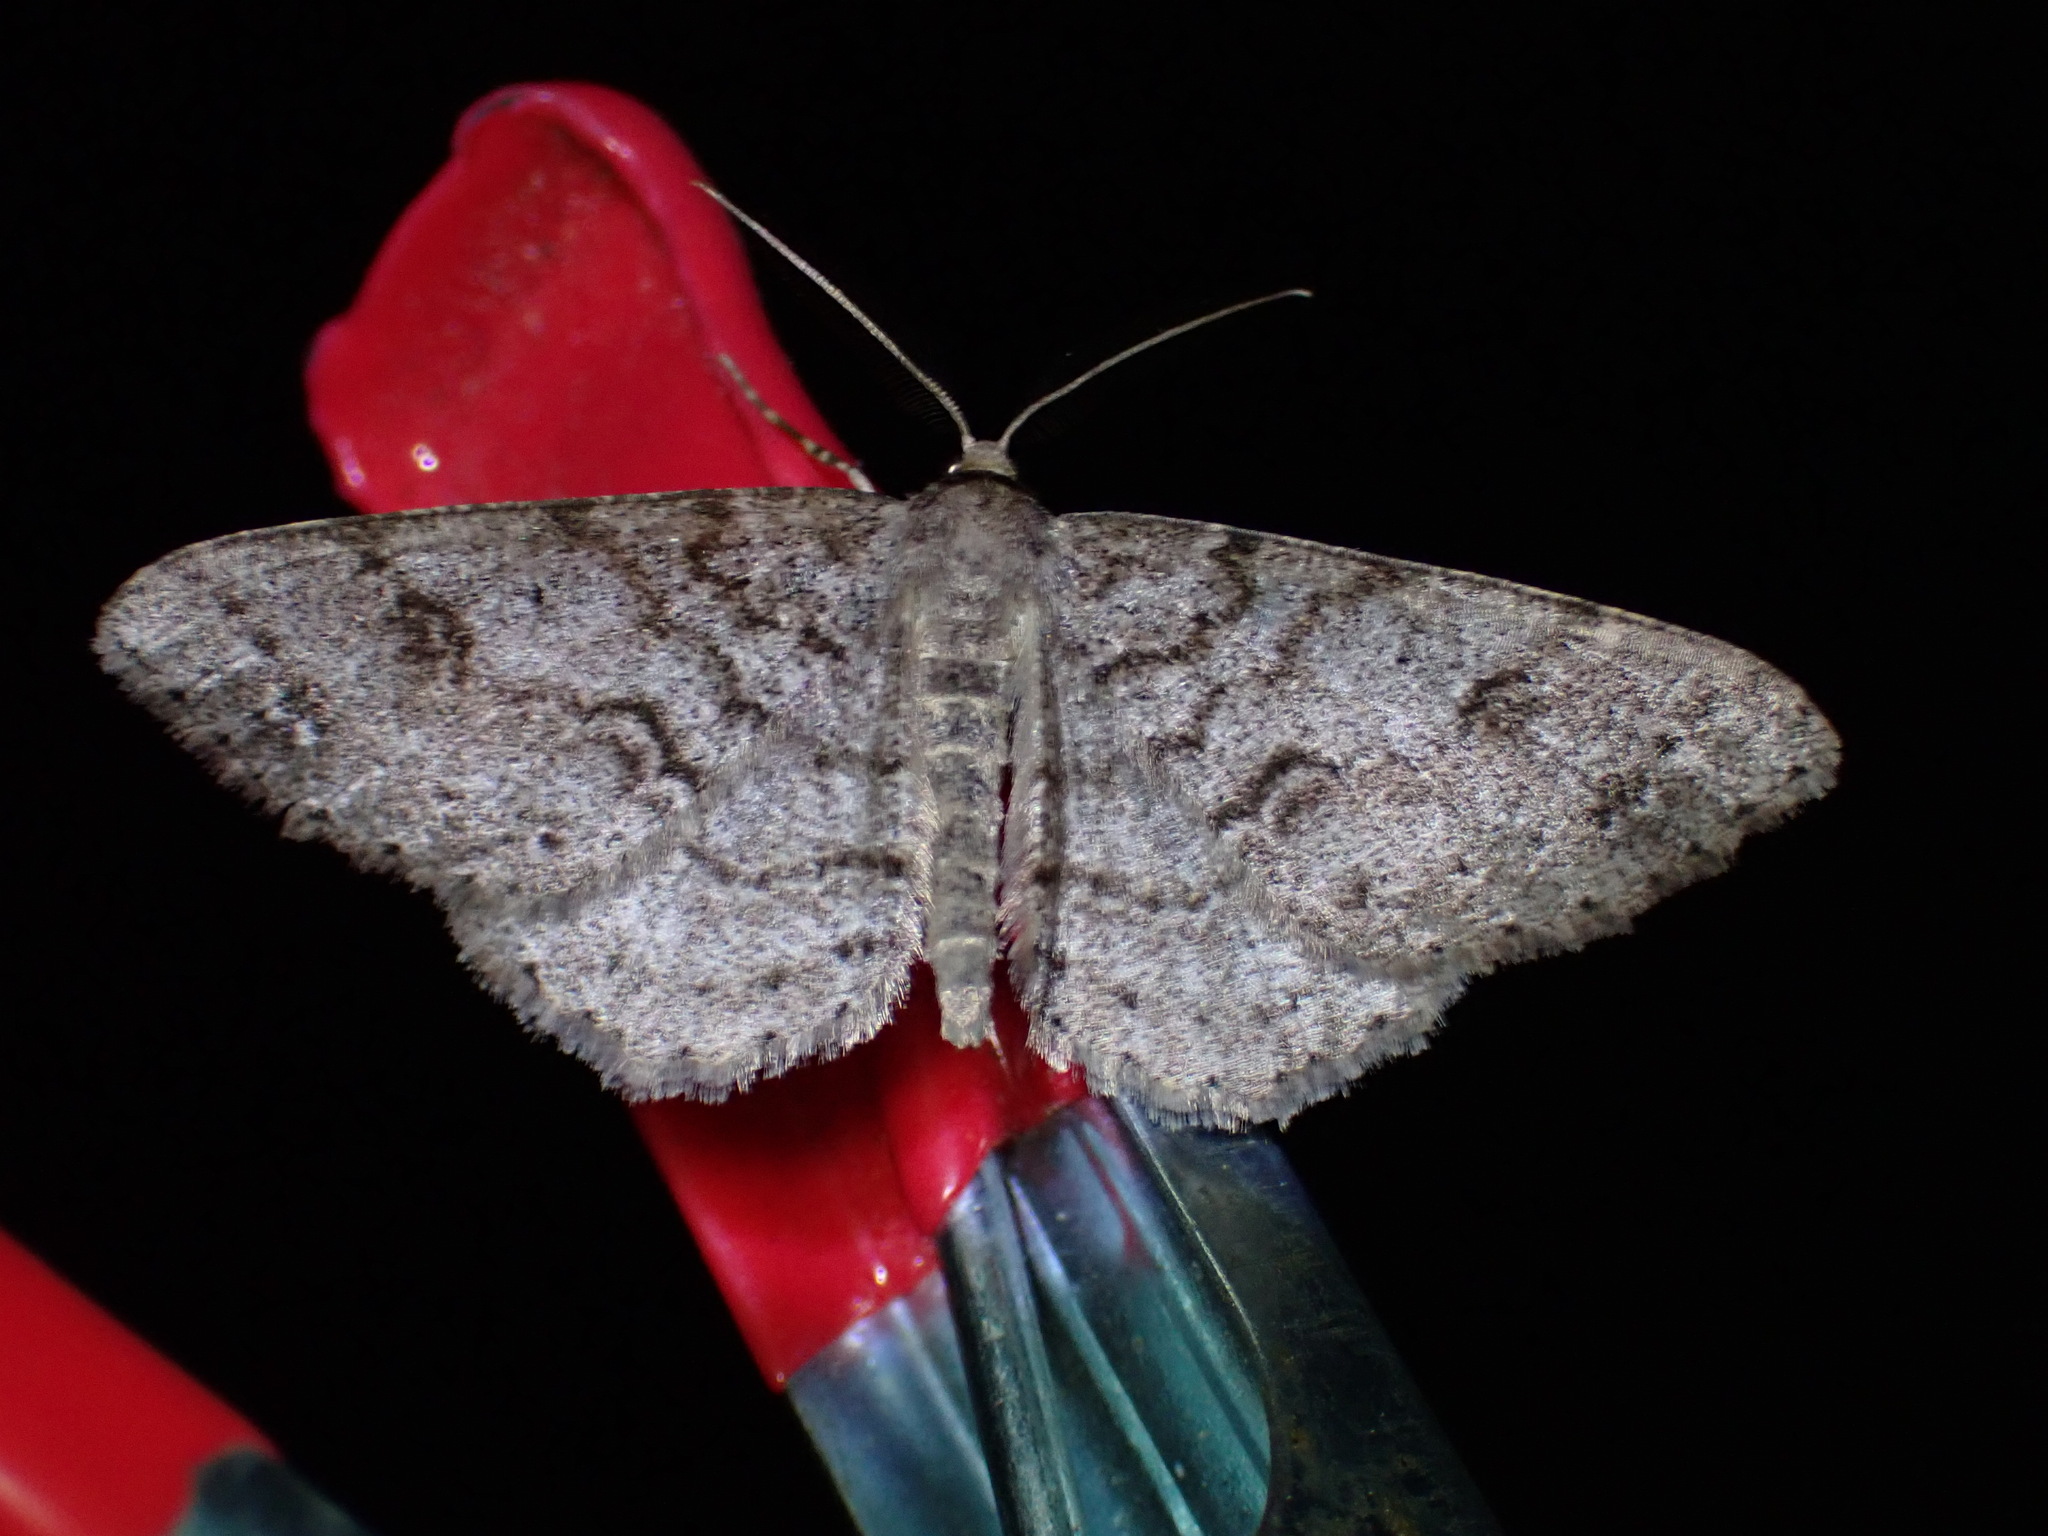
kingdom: Animalia
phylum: Arthropoda
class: Insecta
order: Lepidoptera
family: Geometridae
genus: Melanolophia
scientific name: Melanolophia imitata
